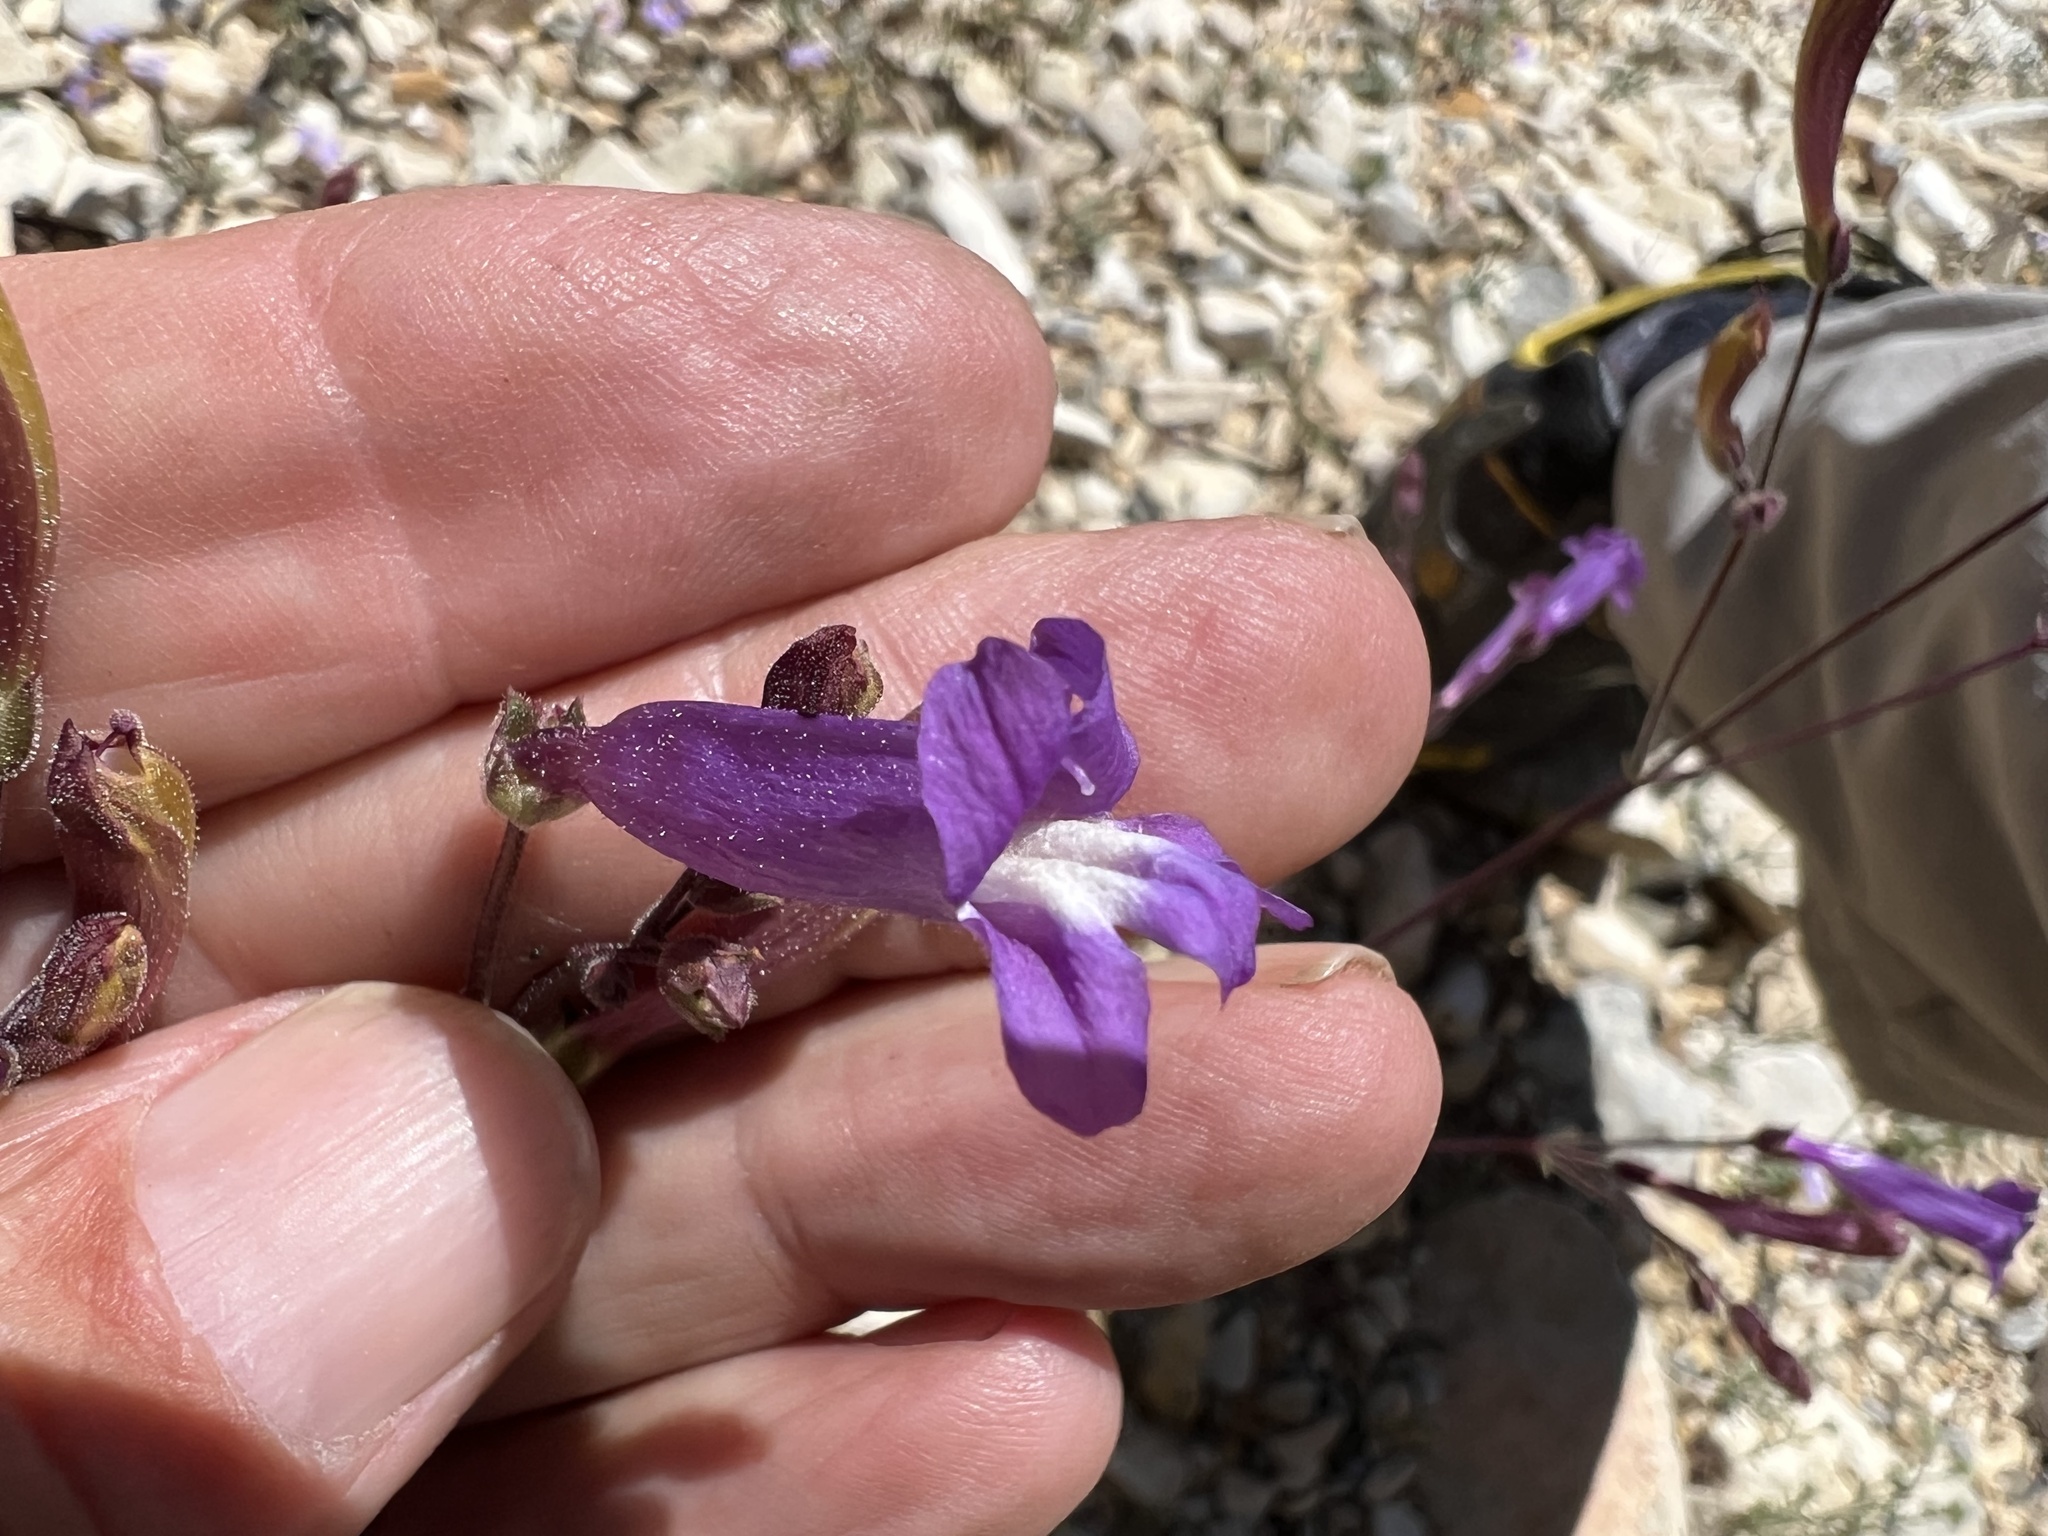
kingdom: Plantae
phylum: Tracheophyta
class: Magnoliopsida
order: Lamiales
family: Plantaginaceae
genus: Penstemon
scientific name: Penstemon scapoides
